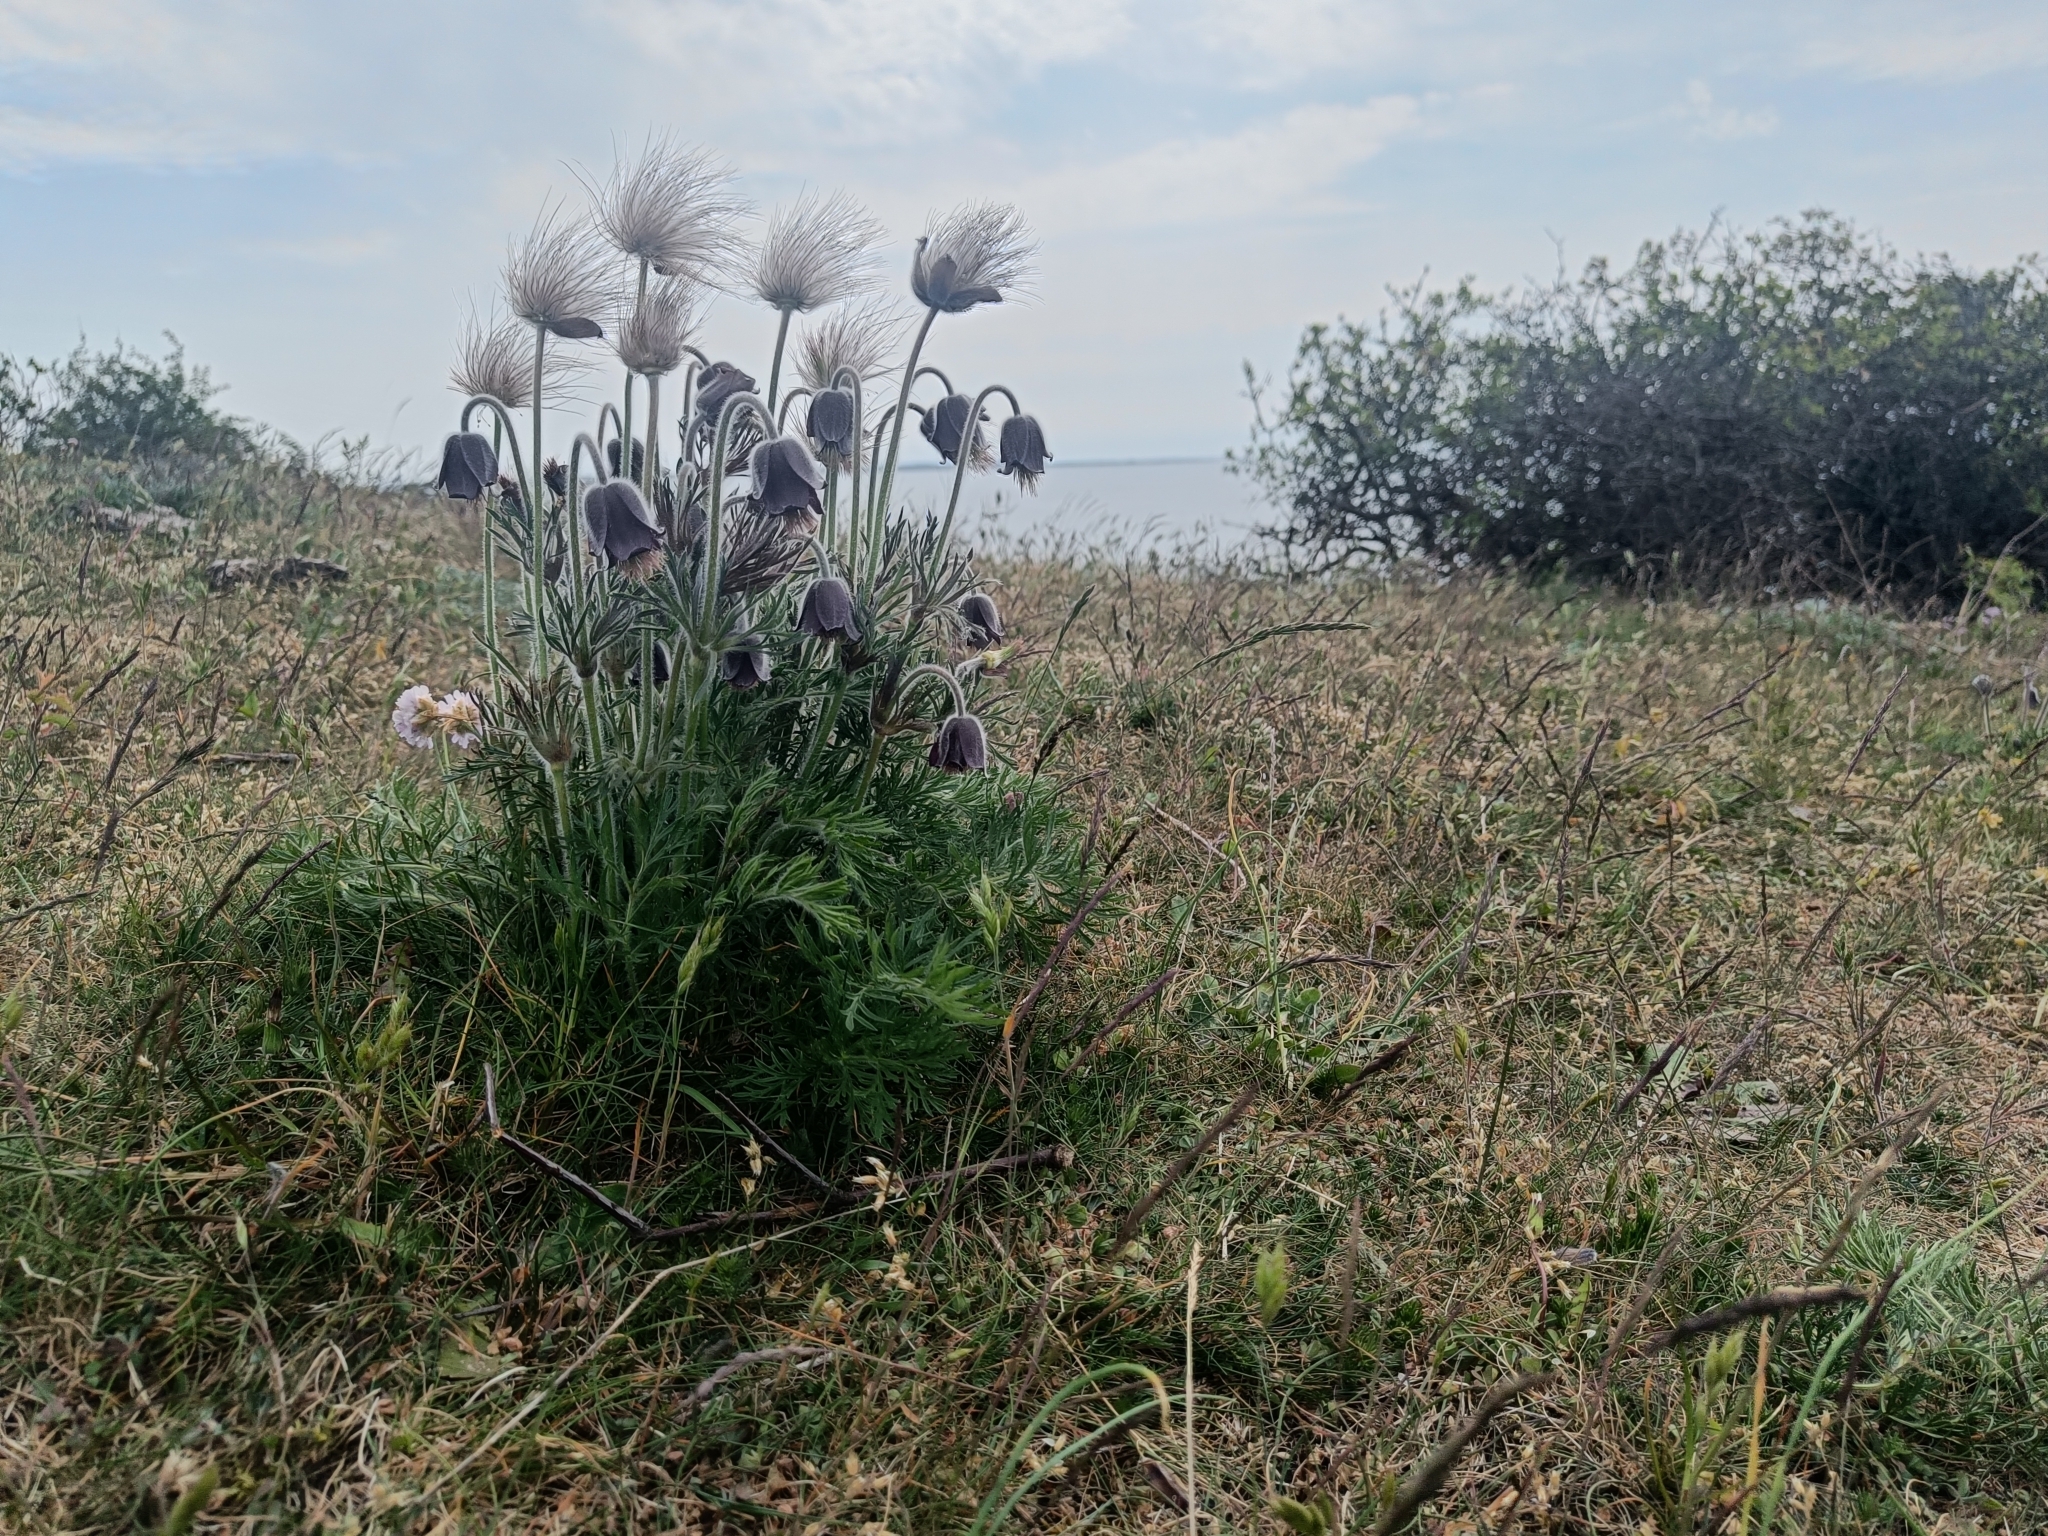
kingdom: Plantae
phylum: Tracheophyta
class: Magnoliopsida
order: Ranunculales
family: Ranunculaceae
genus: Pulsatilla
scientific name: Pulsatilla pratensis
